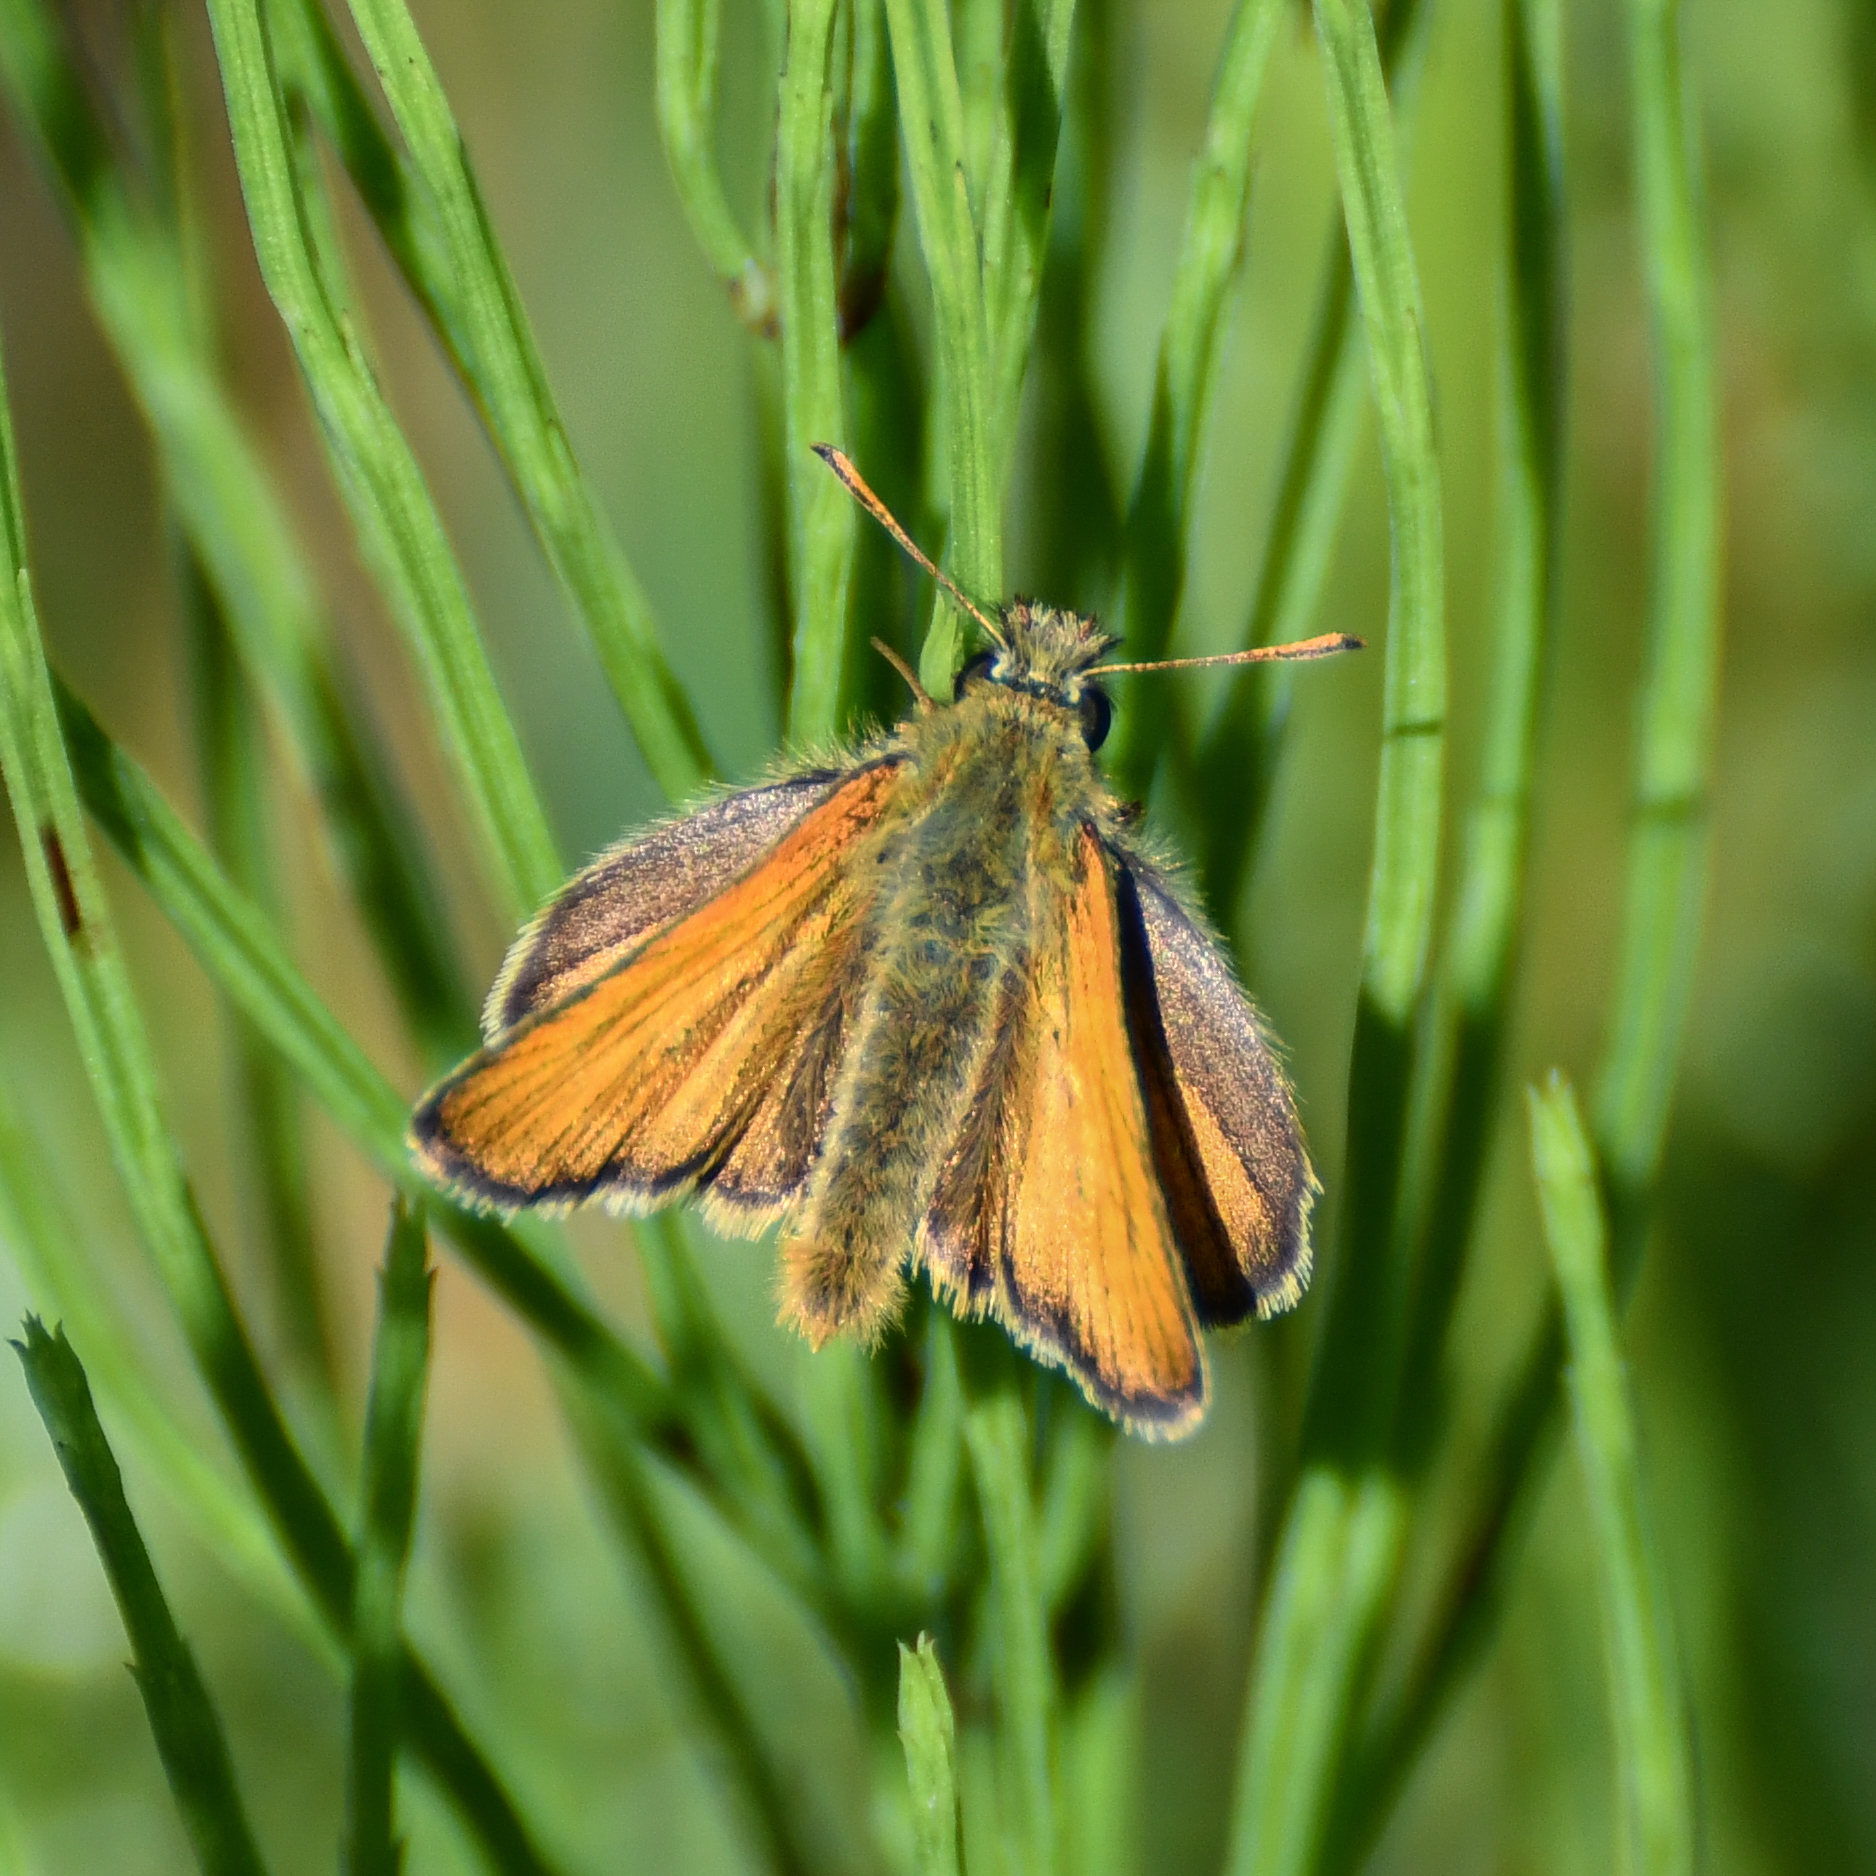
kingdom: Animalia
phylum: Arthropoda
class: Insecta
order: Lepidoptera
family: Hesperiidae
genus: Thymelicus
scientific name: Thymelicus sylvestris
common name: Small skipper
